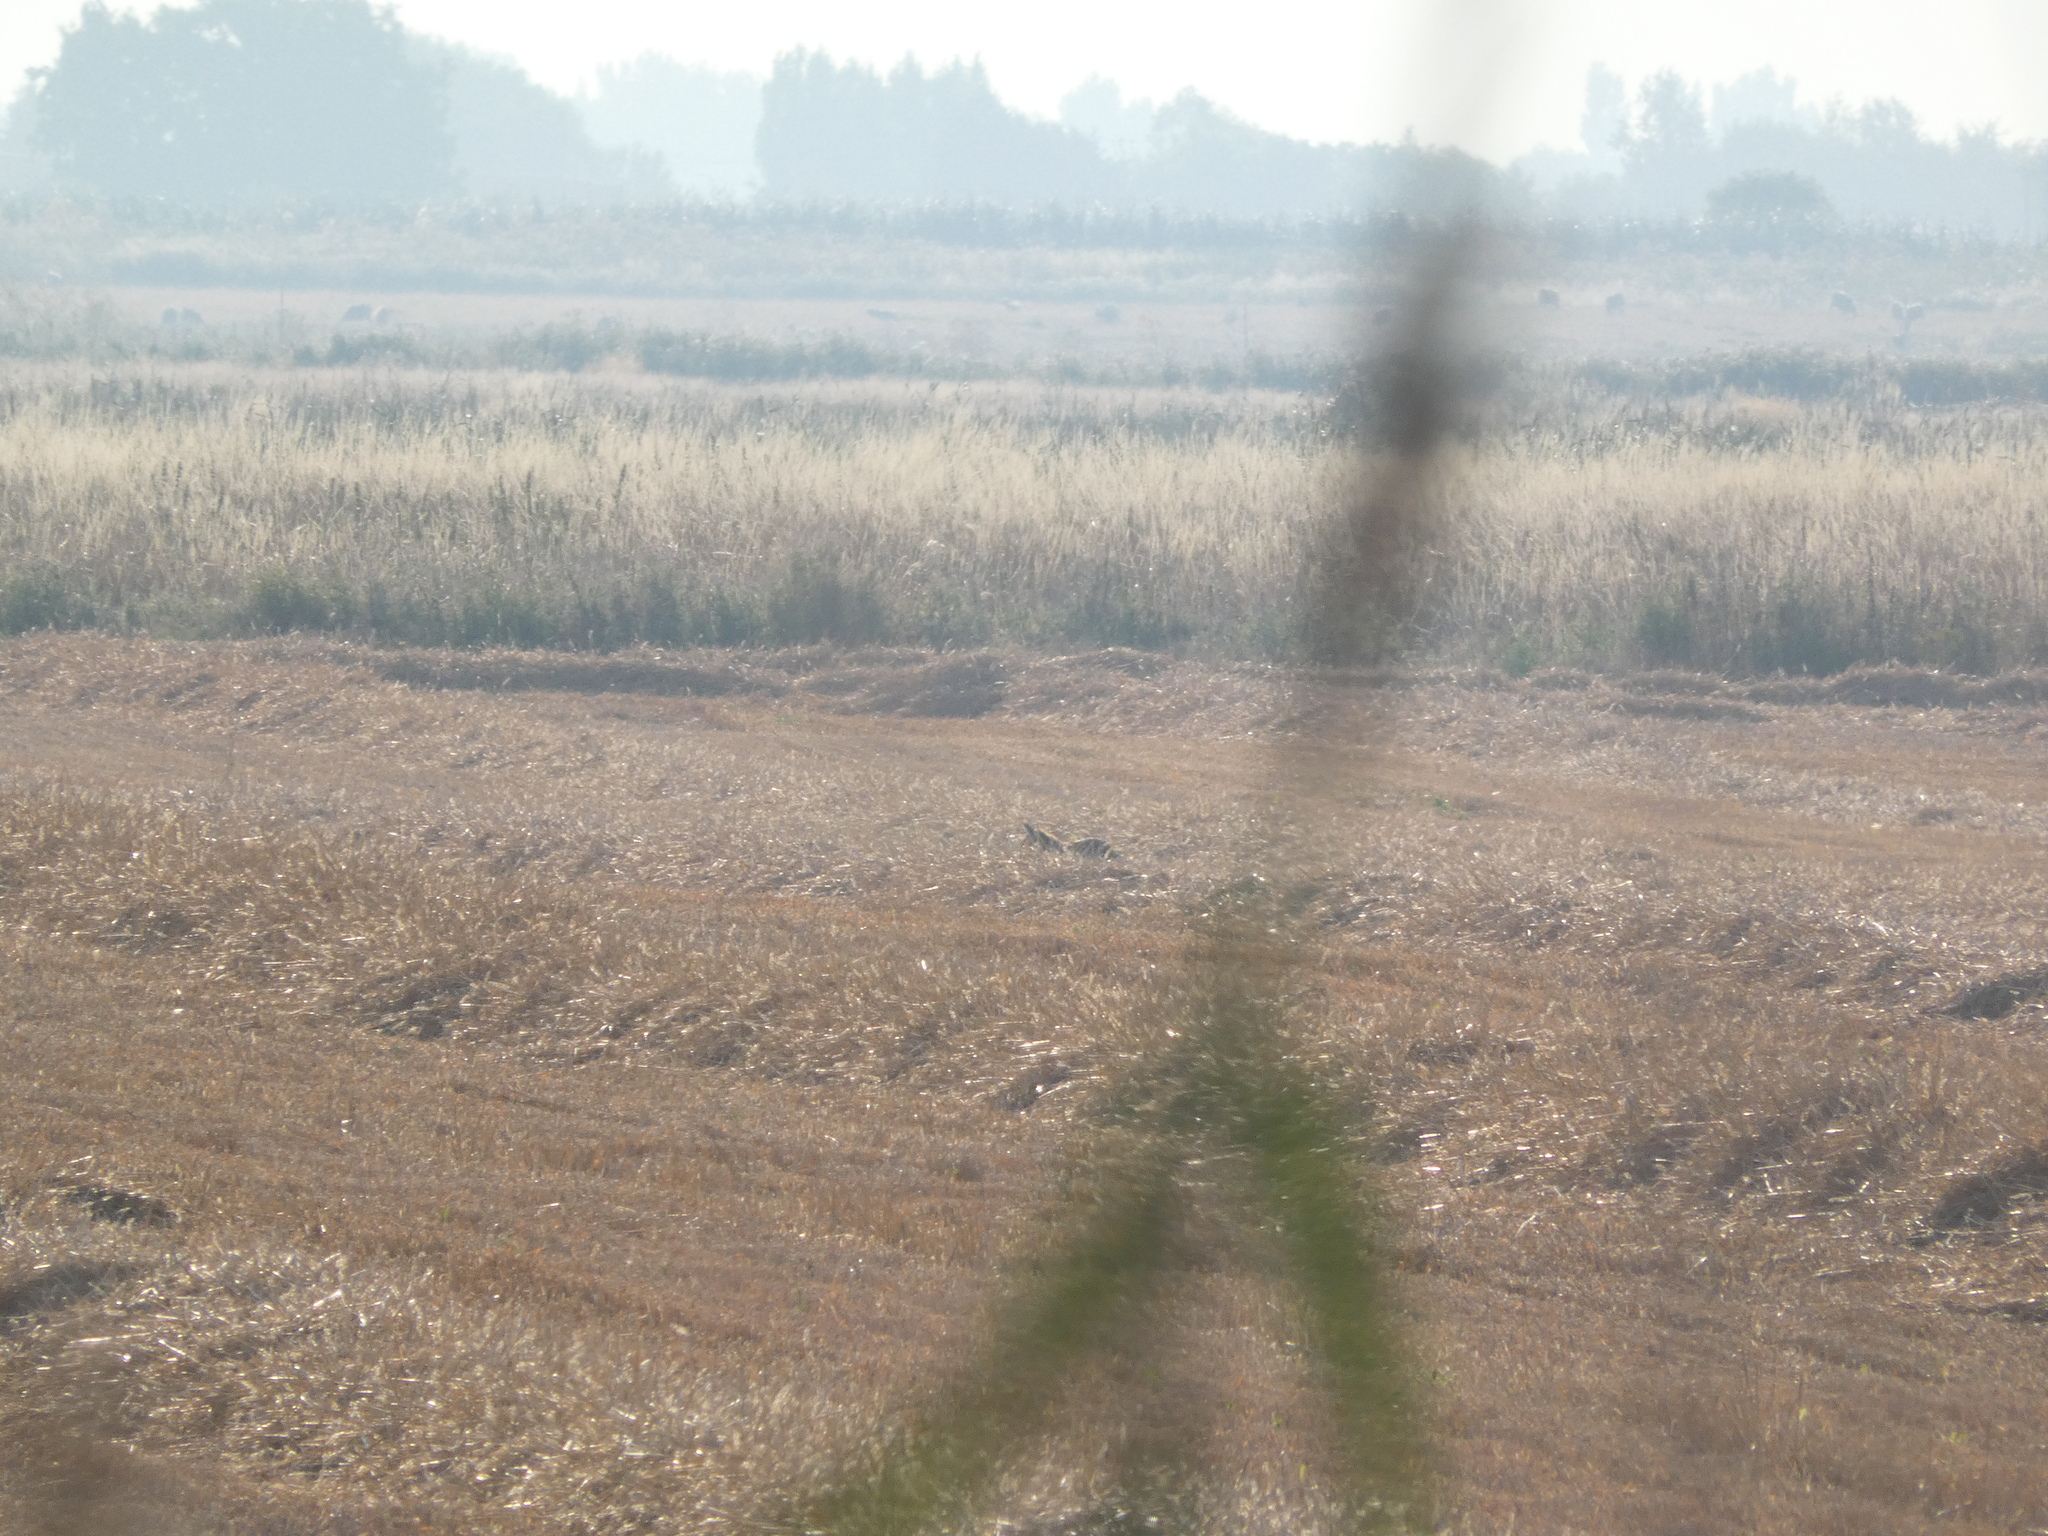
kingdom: Animalia
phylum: Chordata
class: Mammalia
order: Carnivora
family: Canidae
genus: Vulpes
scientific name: Vulpes vulpes
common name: Red fox
